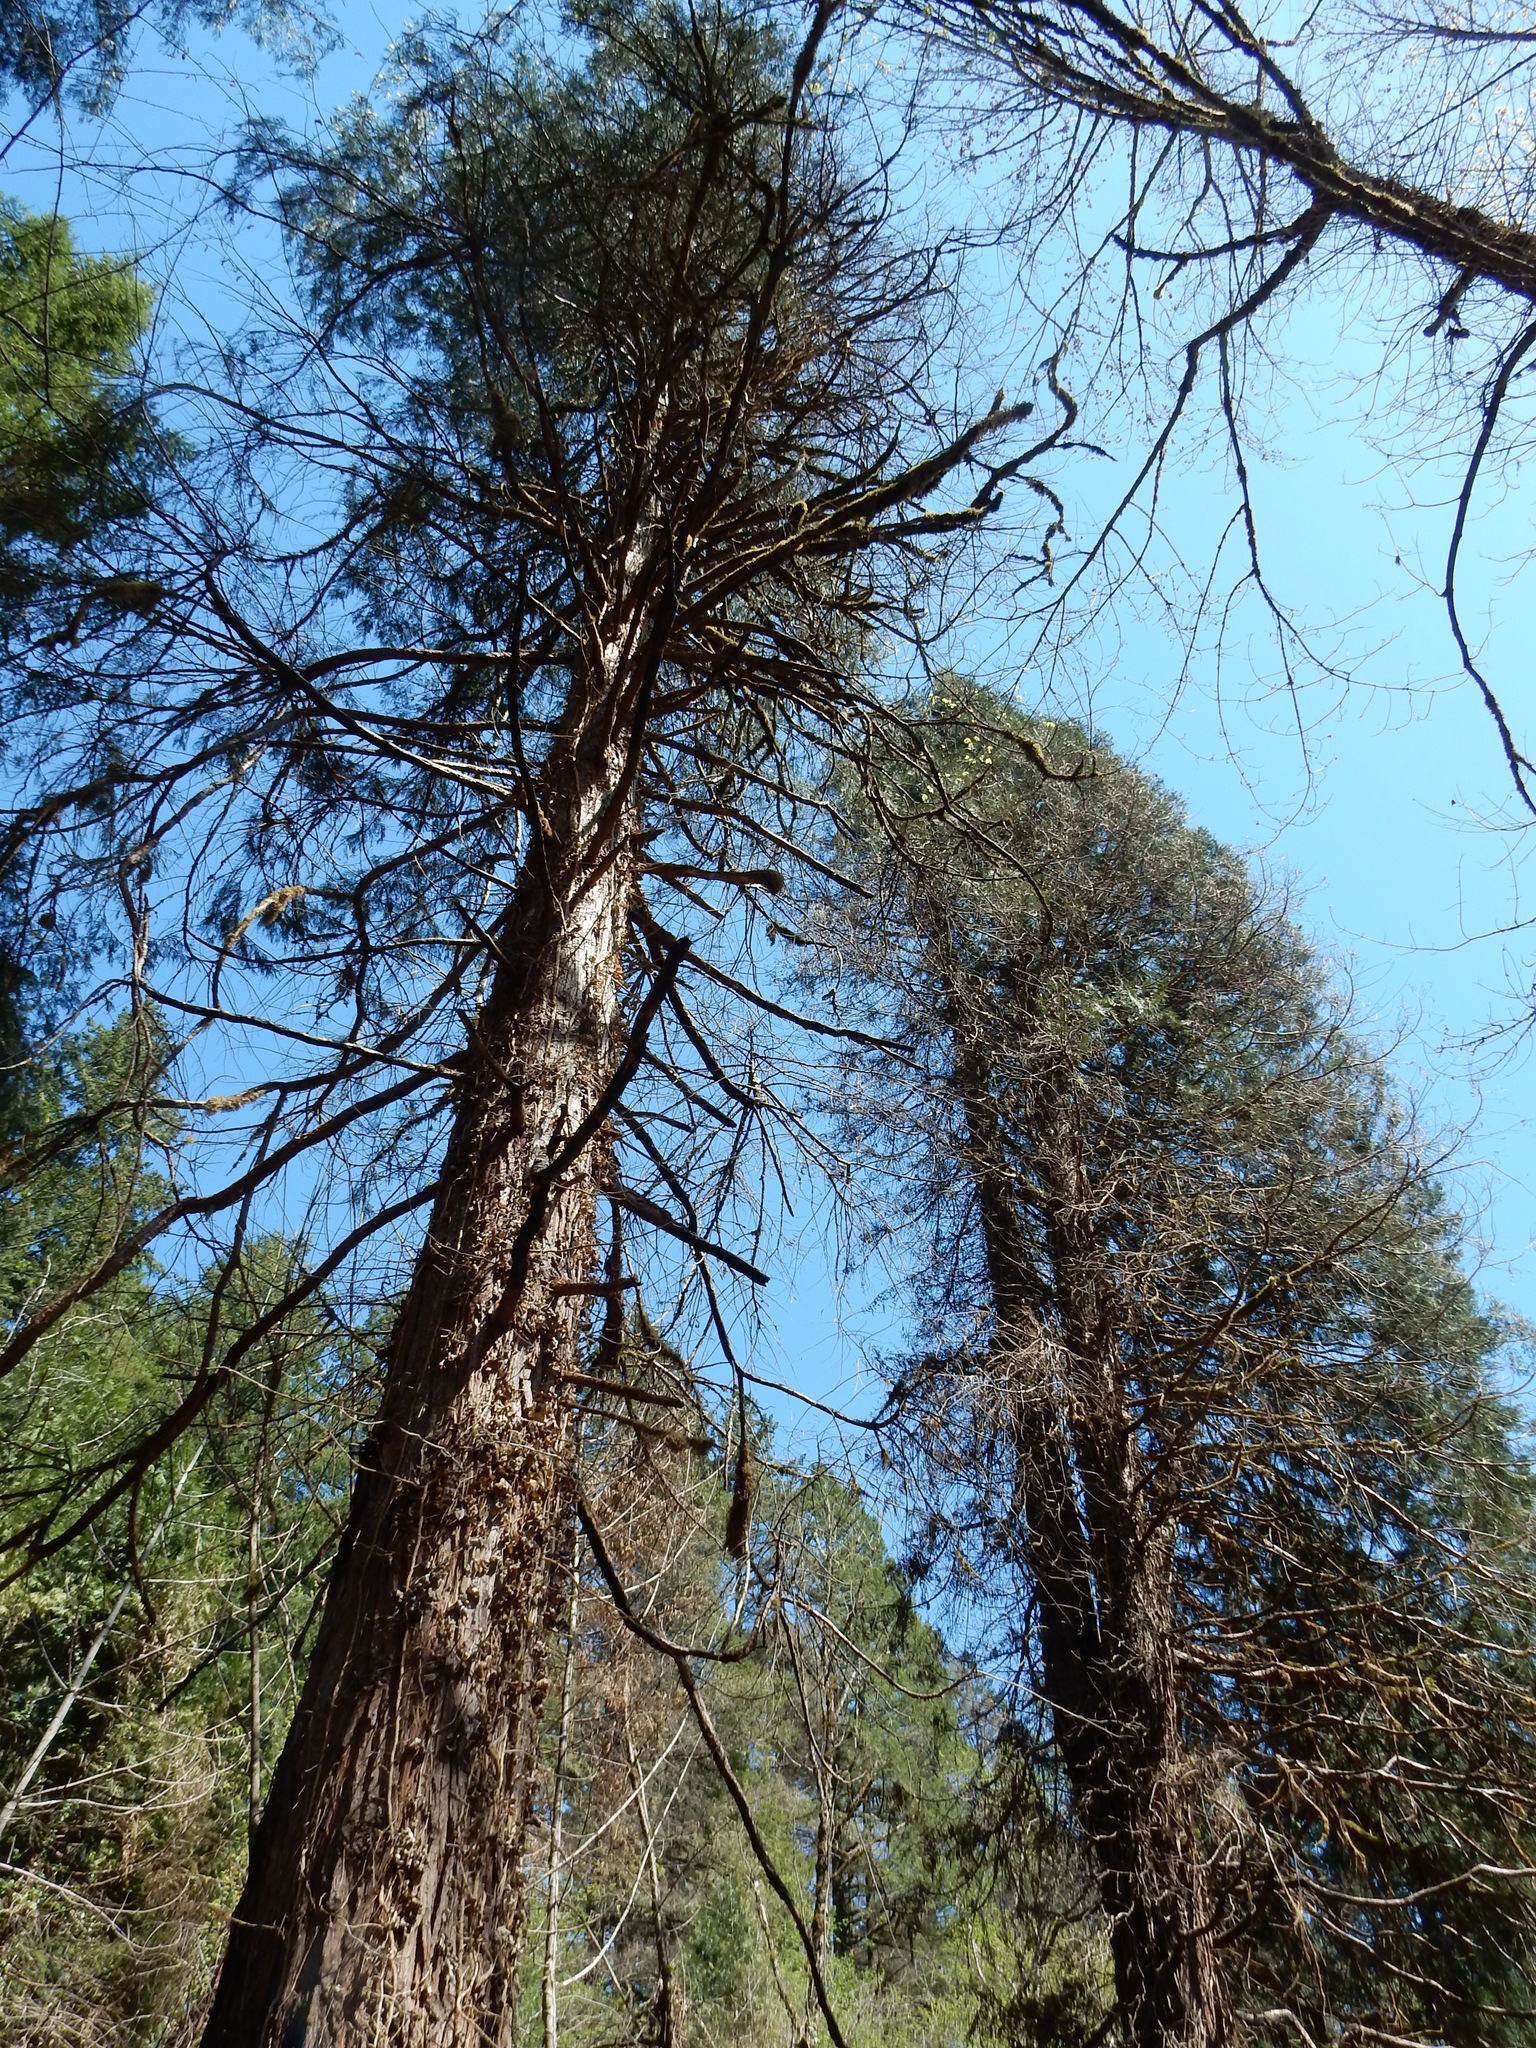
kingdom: Plantae
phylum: Tracheophyta
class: Pinopsida
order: Pinales
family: Cupressaceae
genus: Calocedrus
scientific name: Calocedrus decurrens
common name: Californian incense-cedar
